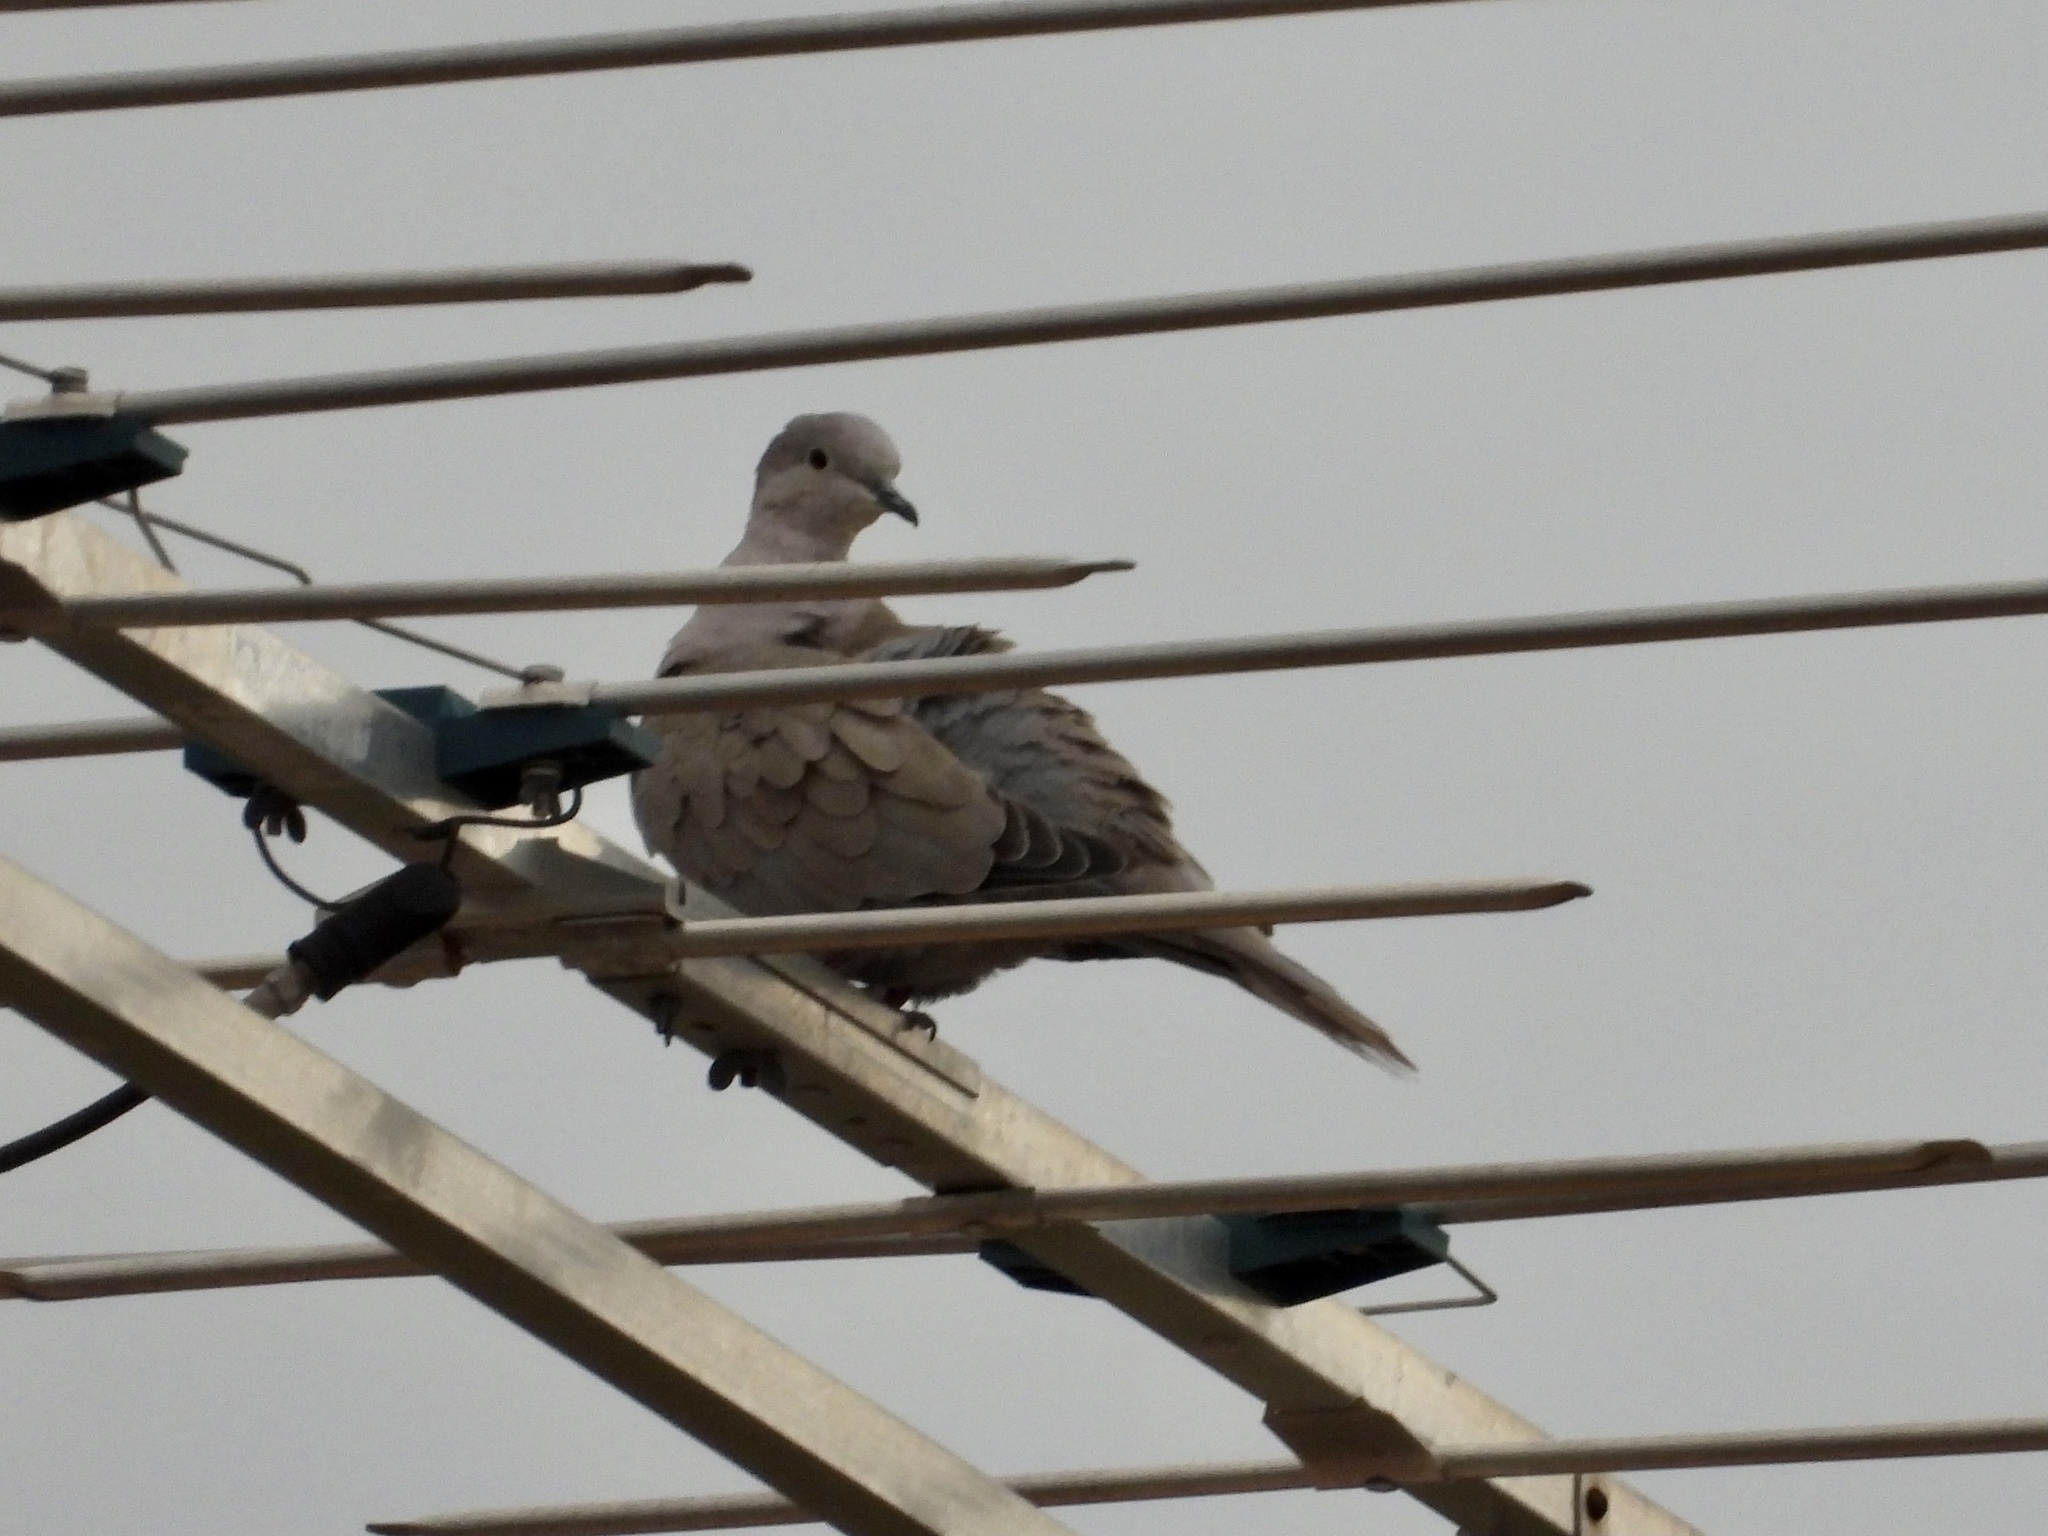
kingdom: Animalia
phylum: Chordata
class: Aves
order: Columbiformes
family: Columbidae
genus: Streptopelia
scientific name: Streptopelia decaocto
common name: Eurasian collared dove
